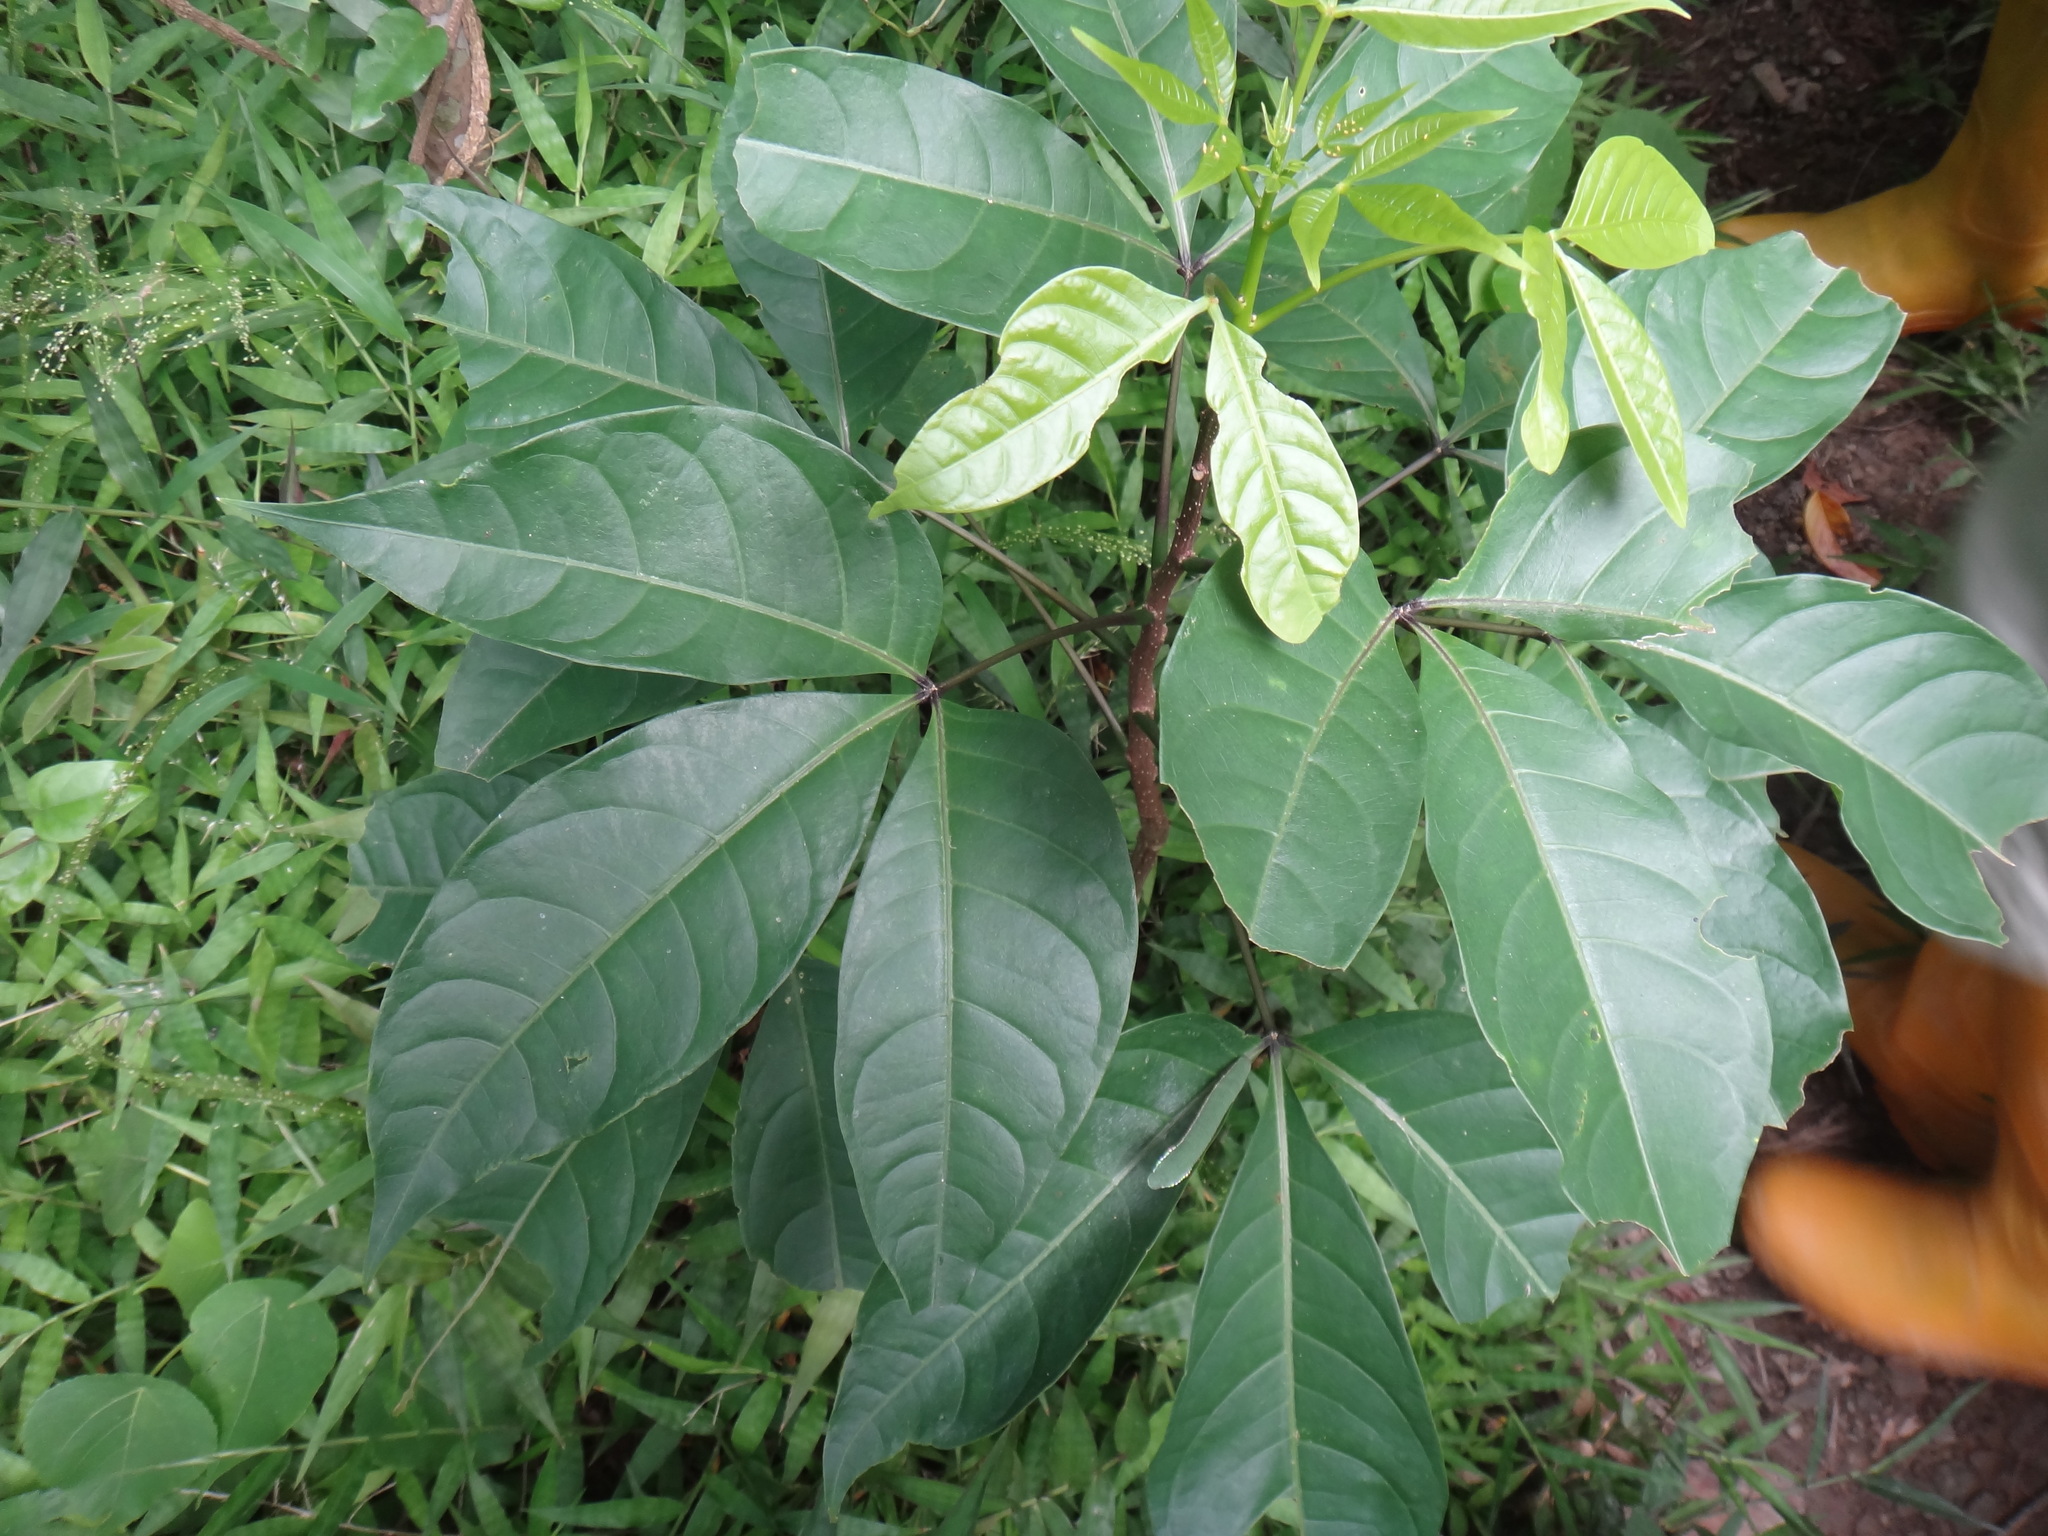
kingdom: Plantae
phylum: Tracheophyta
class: Magnoliopsida
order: Brassicales
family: Capparaceae
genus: Crateva
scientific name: Crateva formosensis
